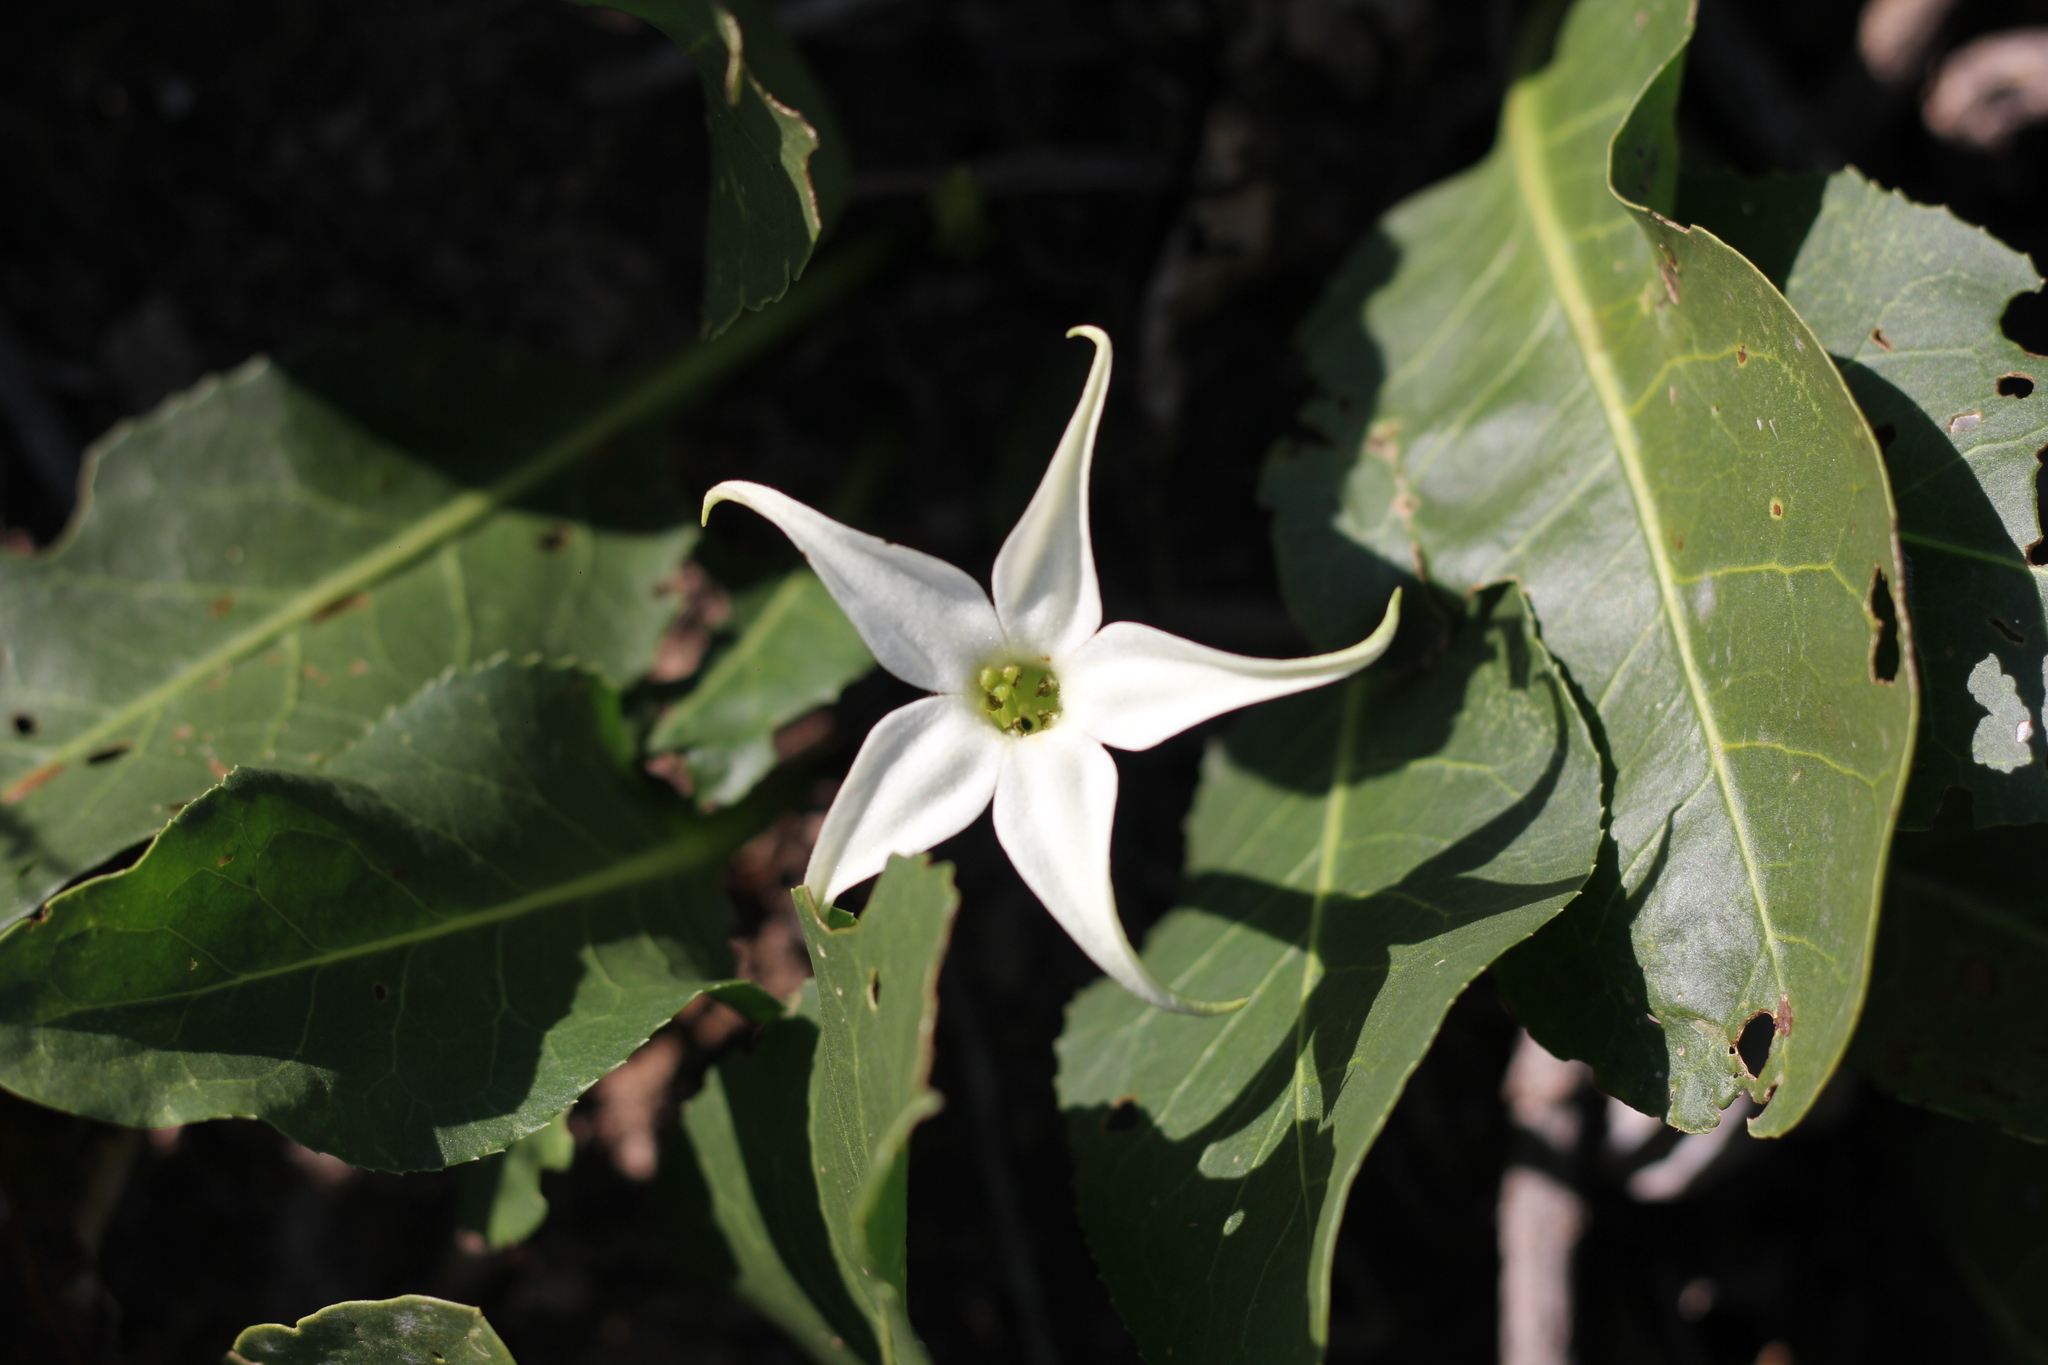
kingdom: Plantae
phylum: Tracheophyta
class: Magnoliopsida
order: Solanales
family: Solanaceae
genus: Jaborosa
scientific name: Jaborosa integrifolia
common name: Springblossom
